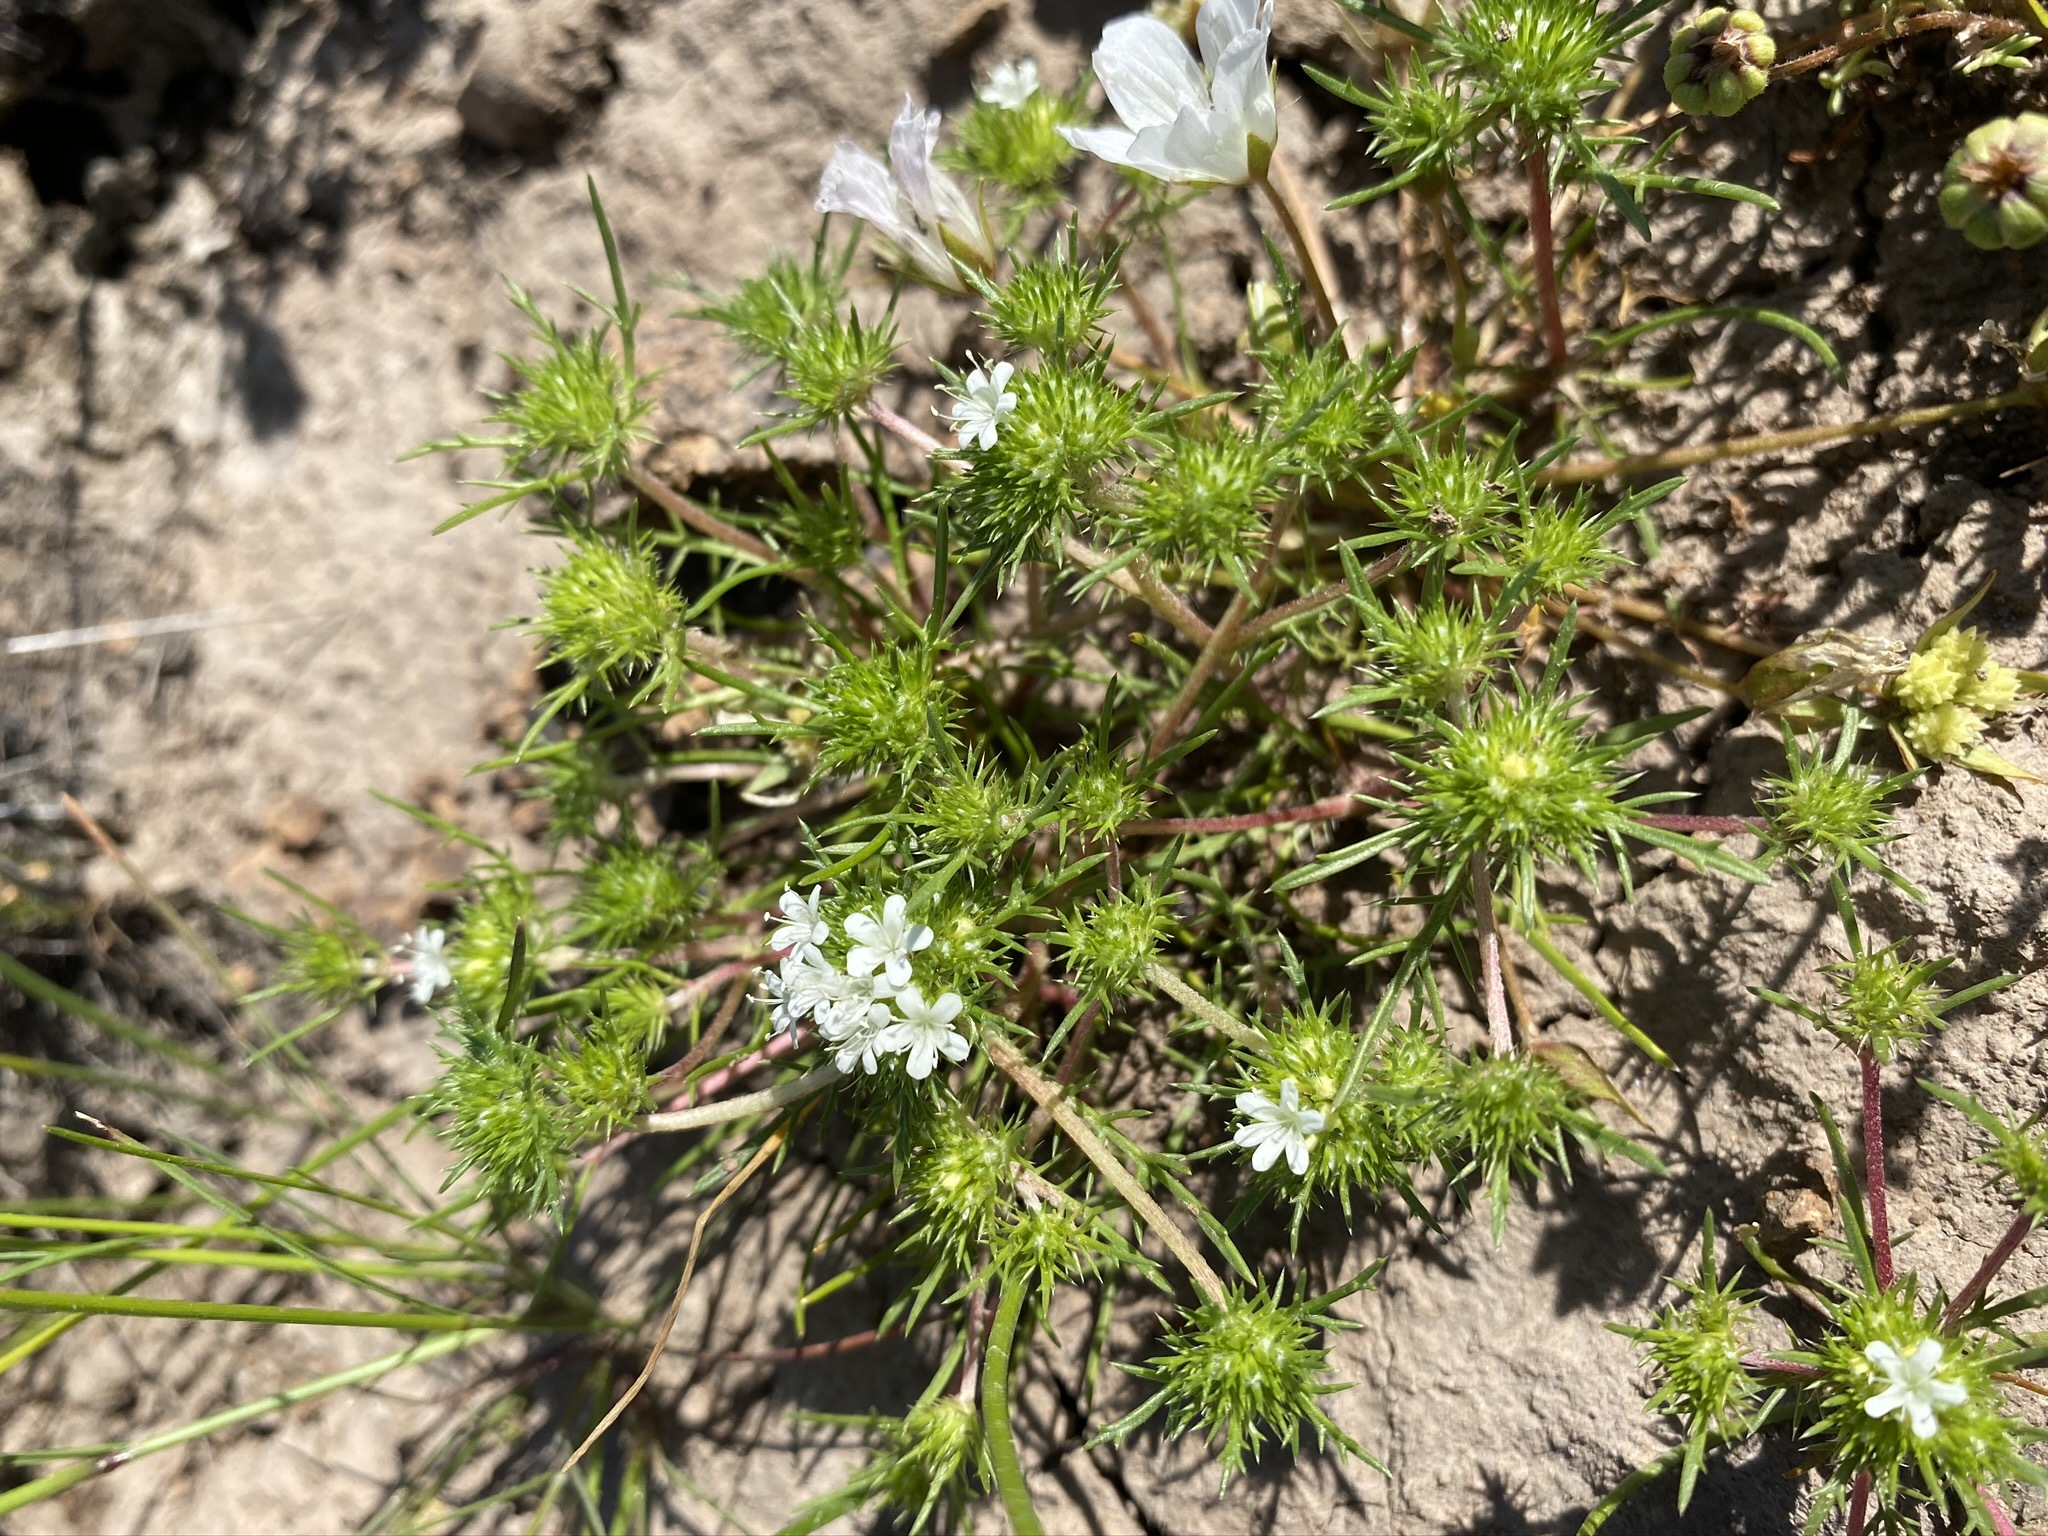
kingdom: Plantae
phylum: Tracheophyta
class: Magnoliopsida
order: Ericales
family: Polemoniaceae
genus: Navarretia
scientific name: Navarretia leucocephala
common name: White-flowered navarretia
